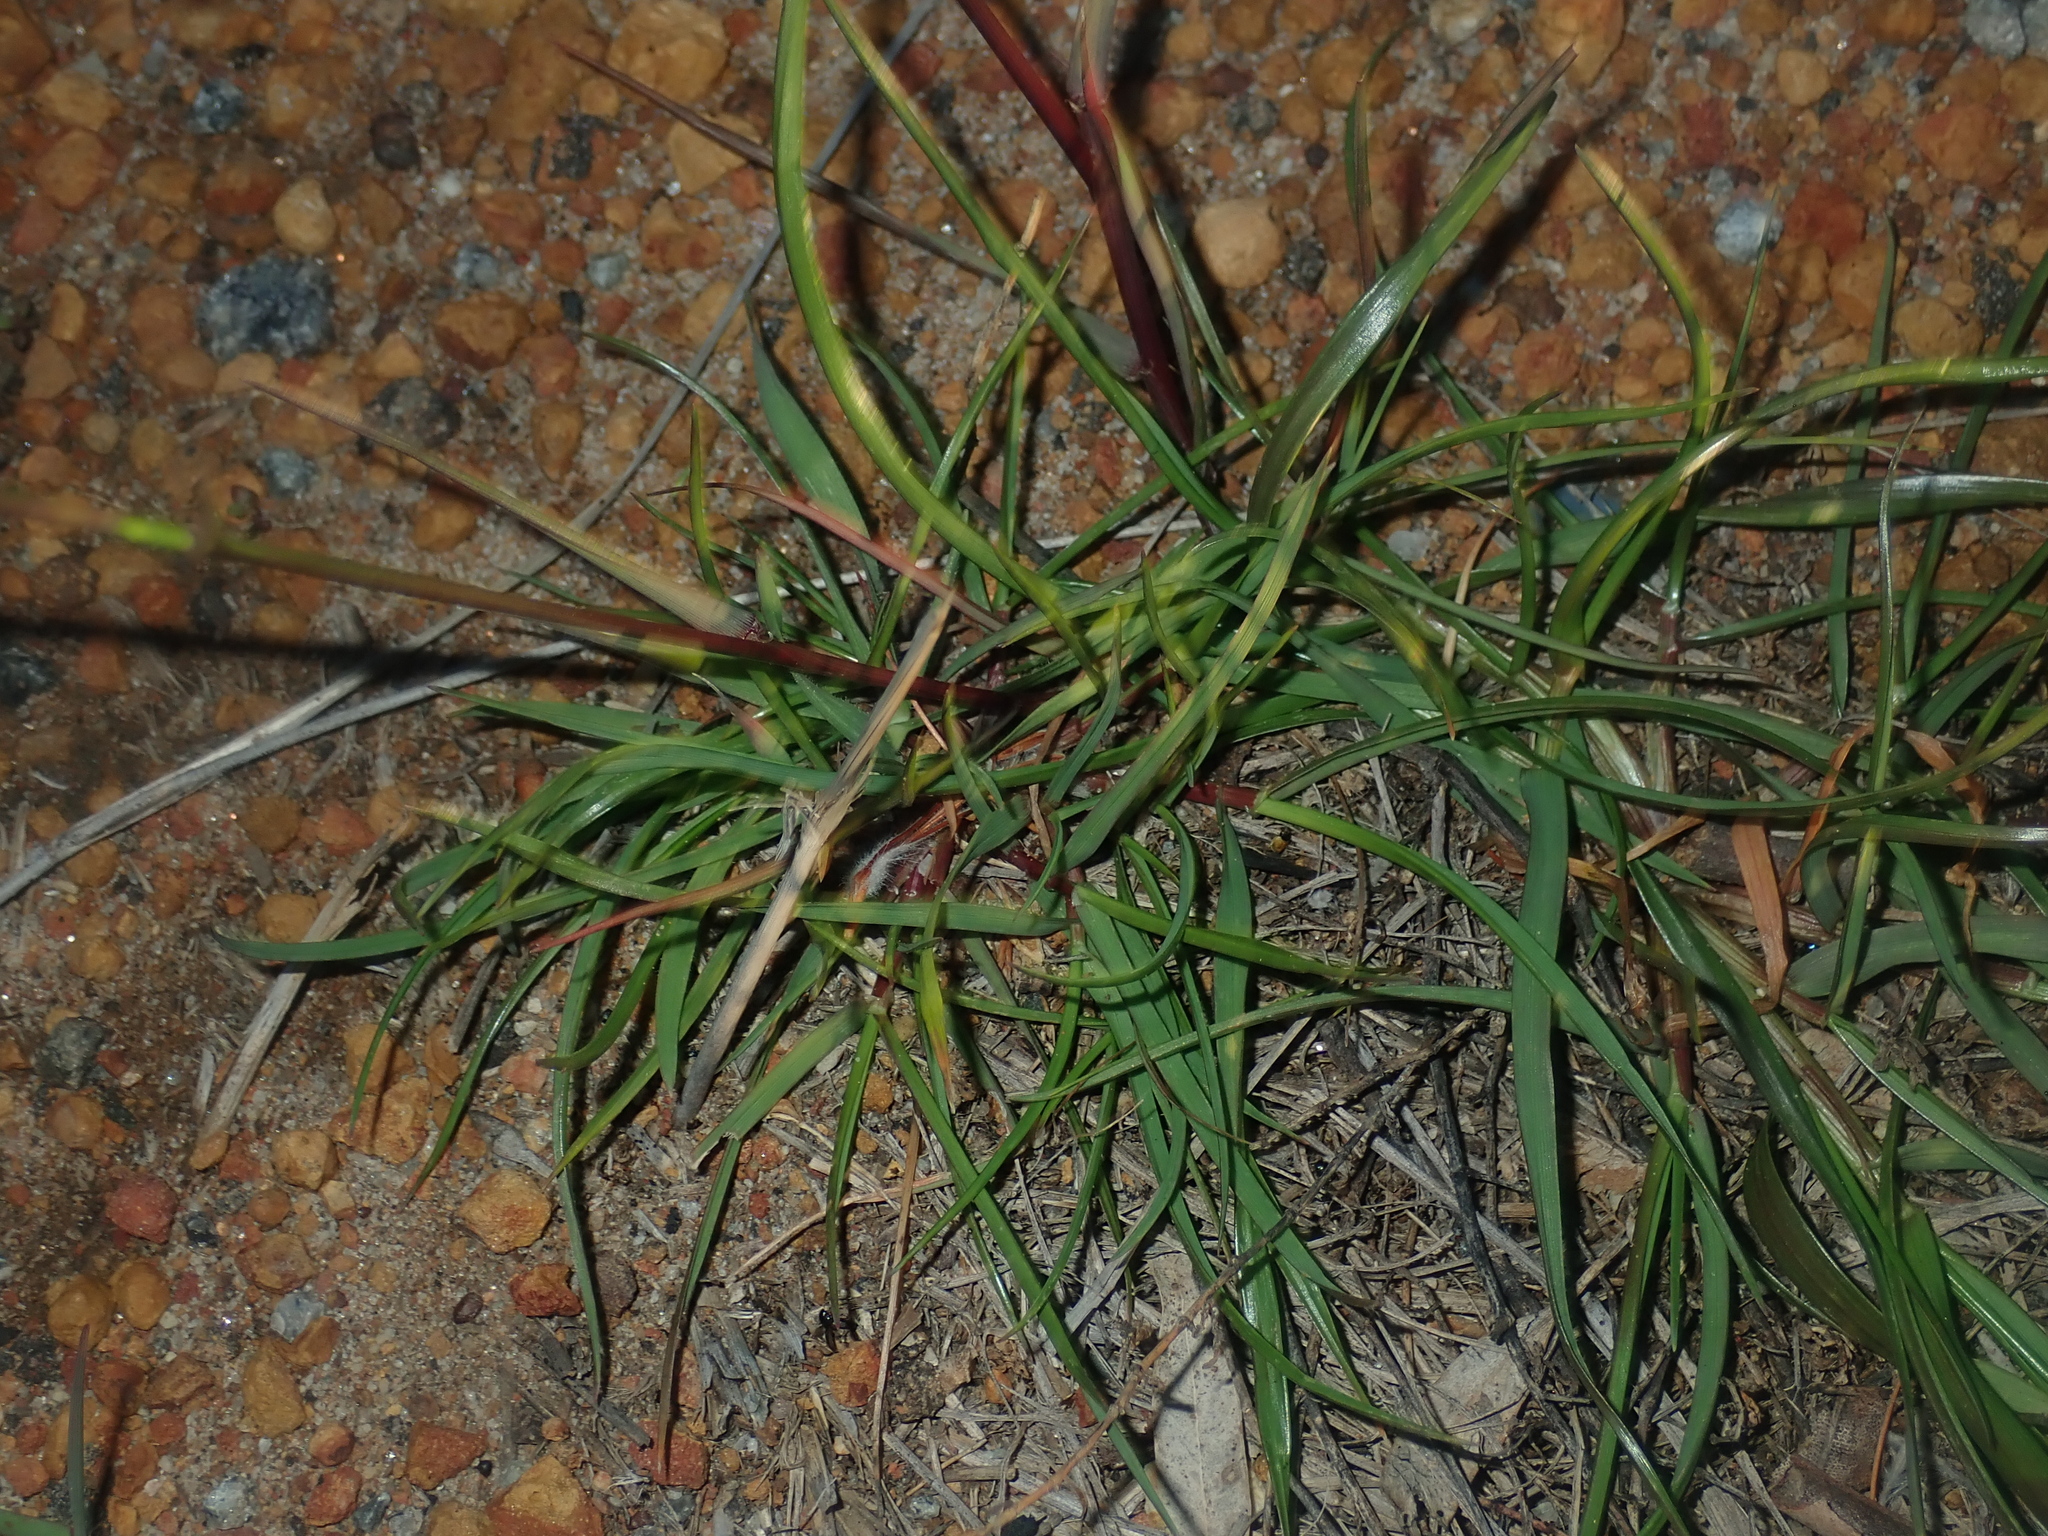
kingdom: Plantae
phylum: Tracheophyta
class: Liliopsida
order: Poales
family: Poaceae
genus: Lolium
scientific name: Lolium rigidum
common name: Wimmera ryegrass
